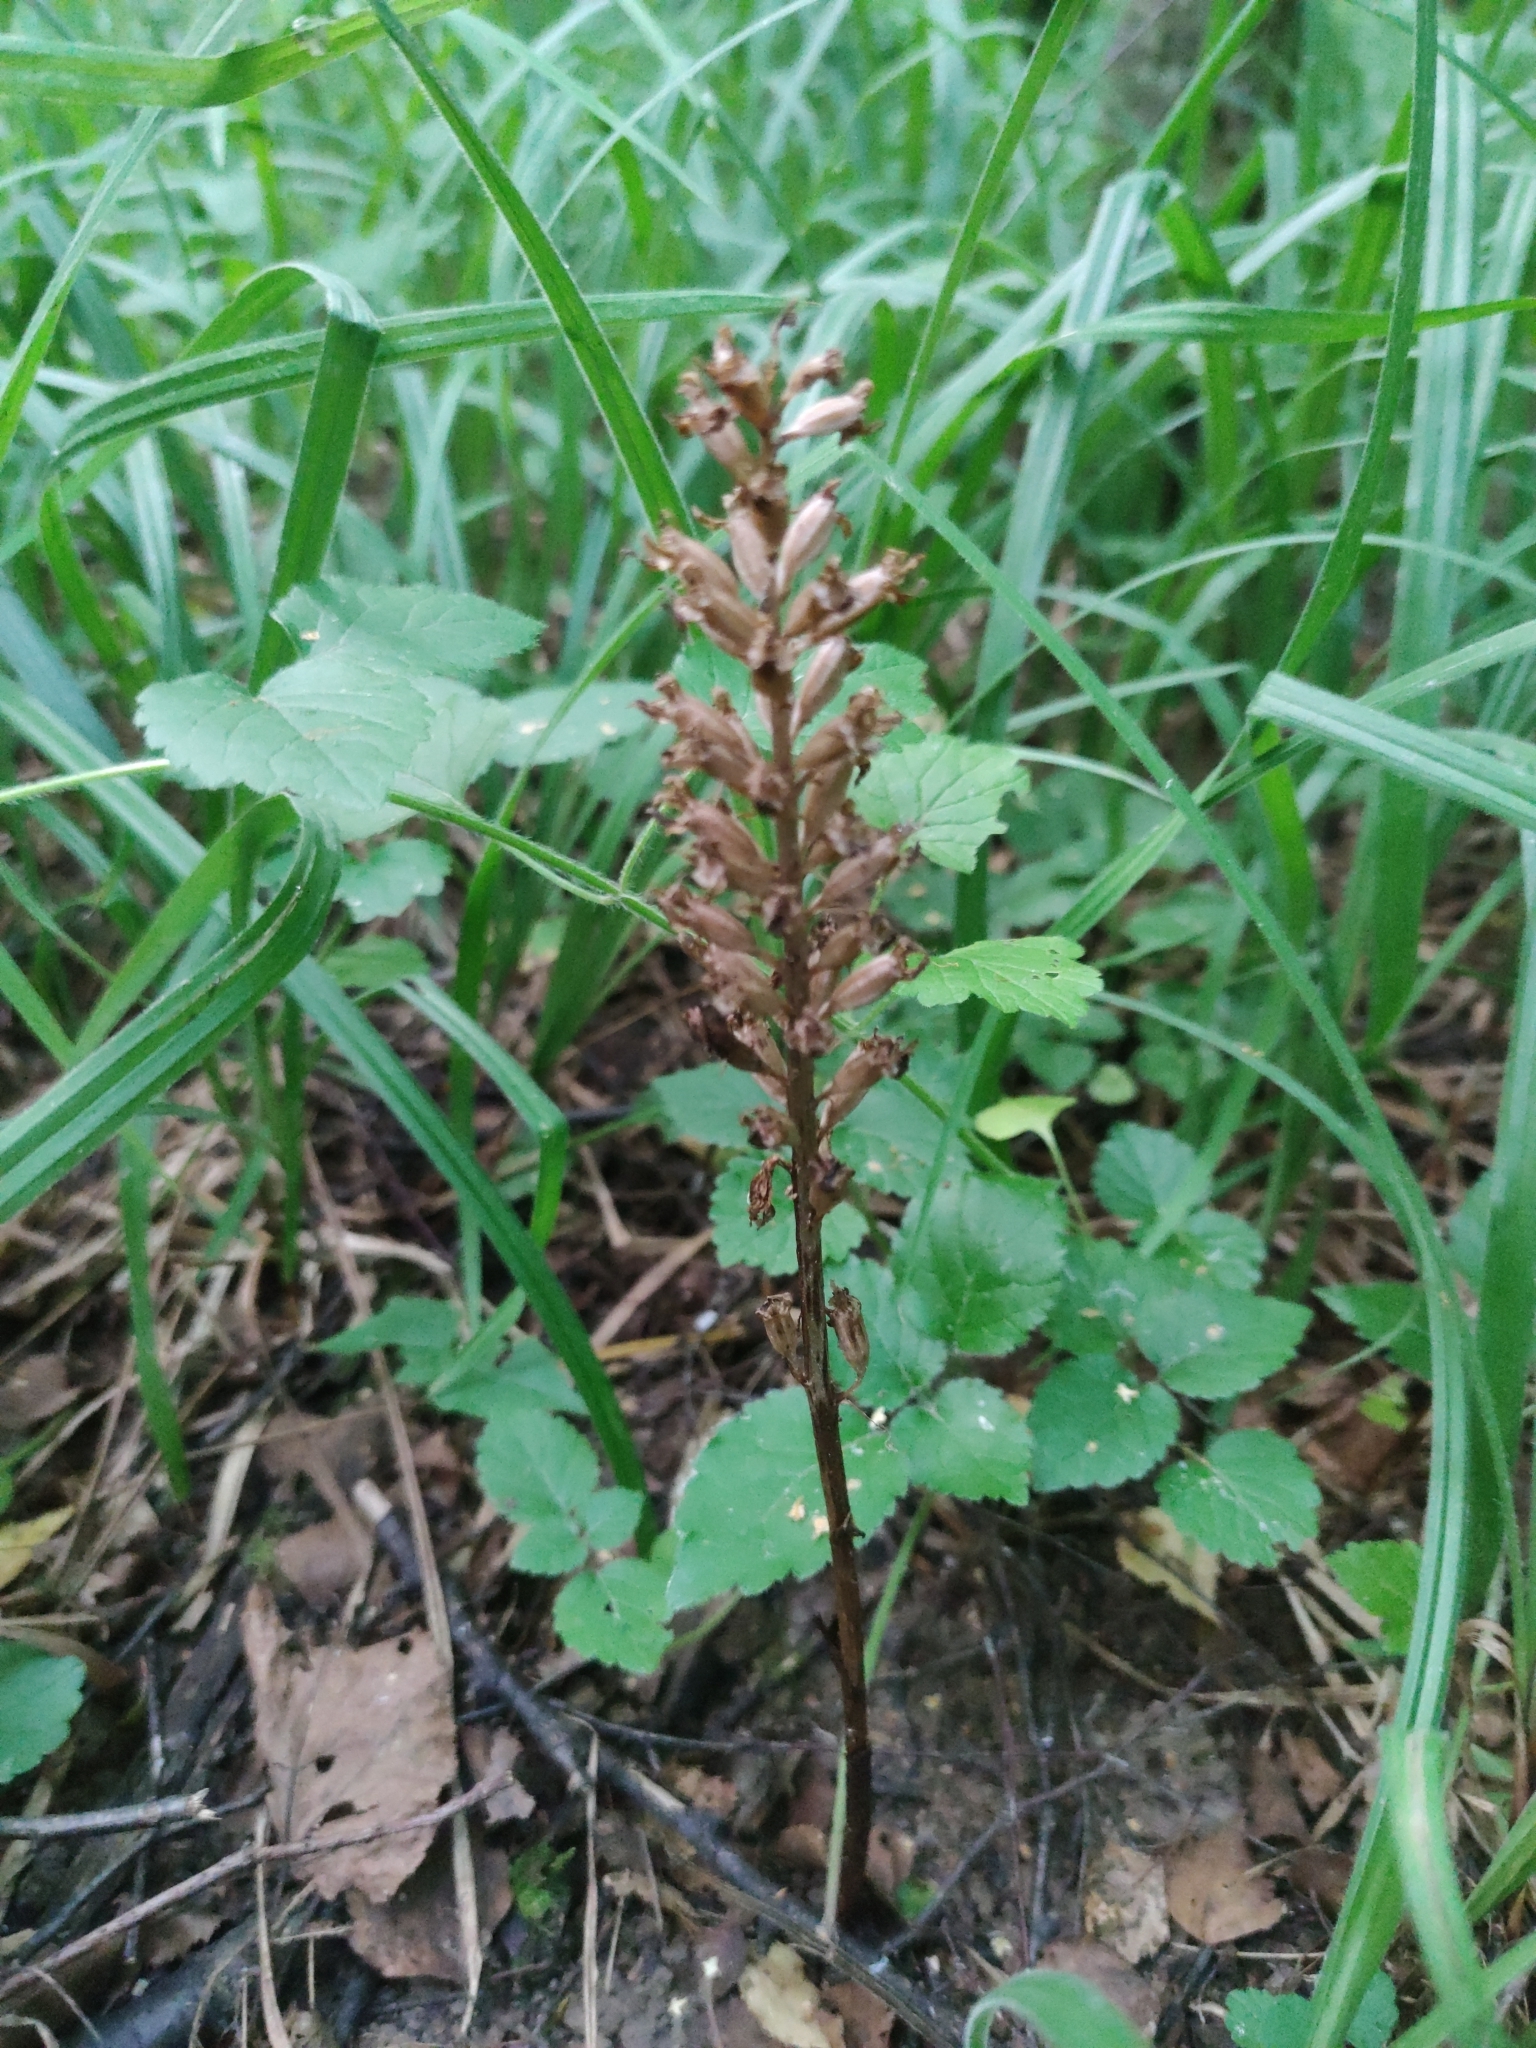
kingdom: Plantae
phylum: Tracheophyta
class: Liliopsida
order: Asparagales
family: Orchidaceae
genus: Neottia
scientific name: Neottia nidus-avis
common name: Bird's-nest orchid
